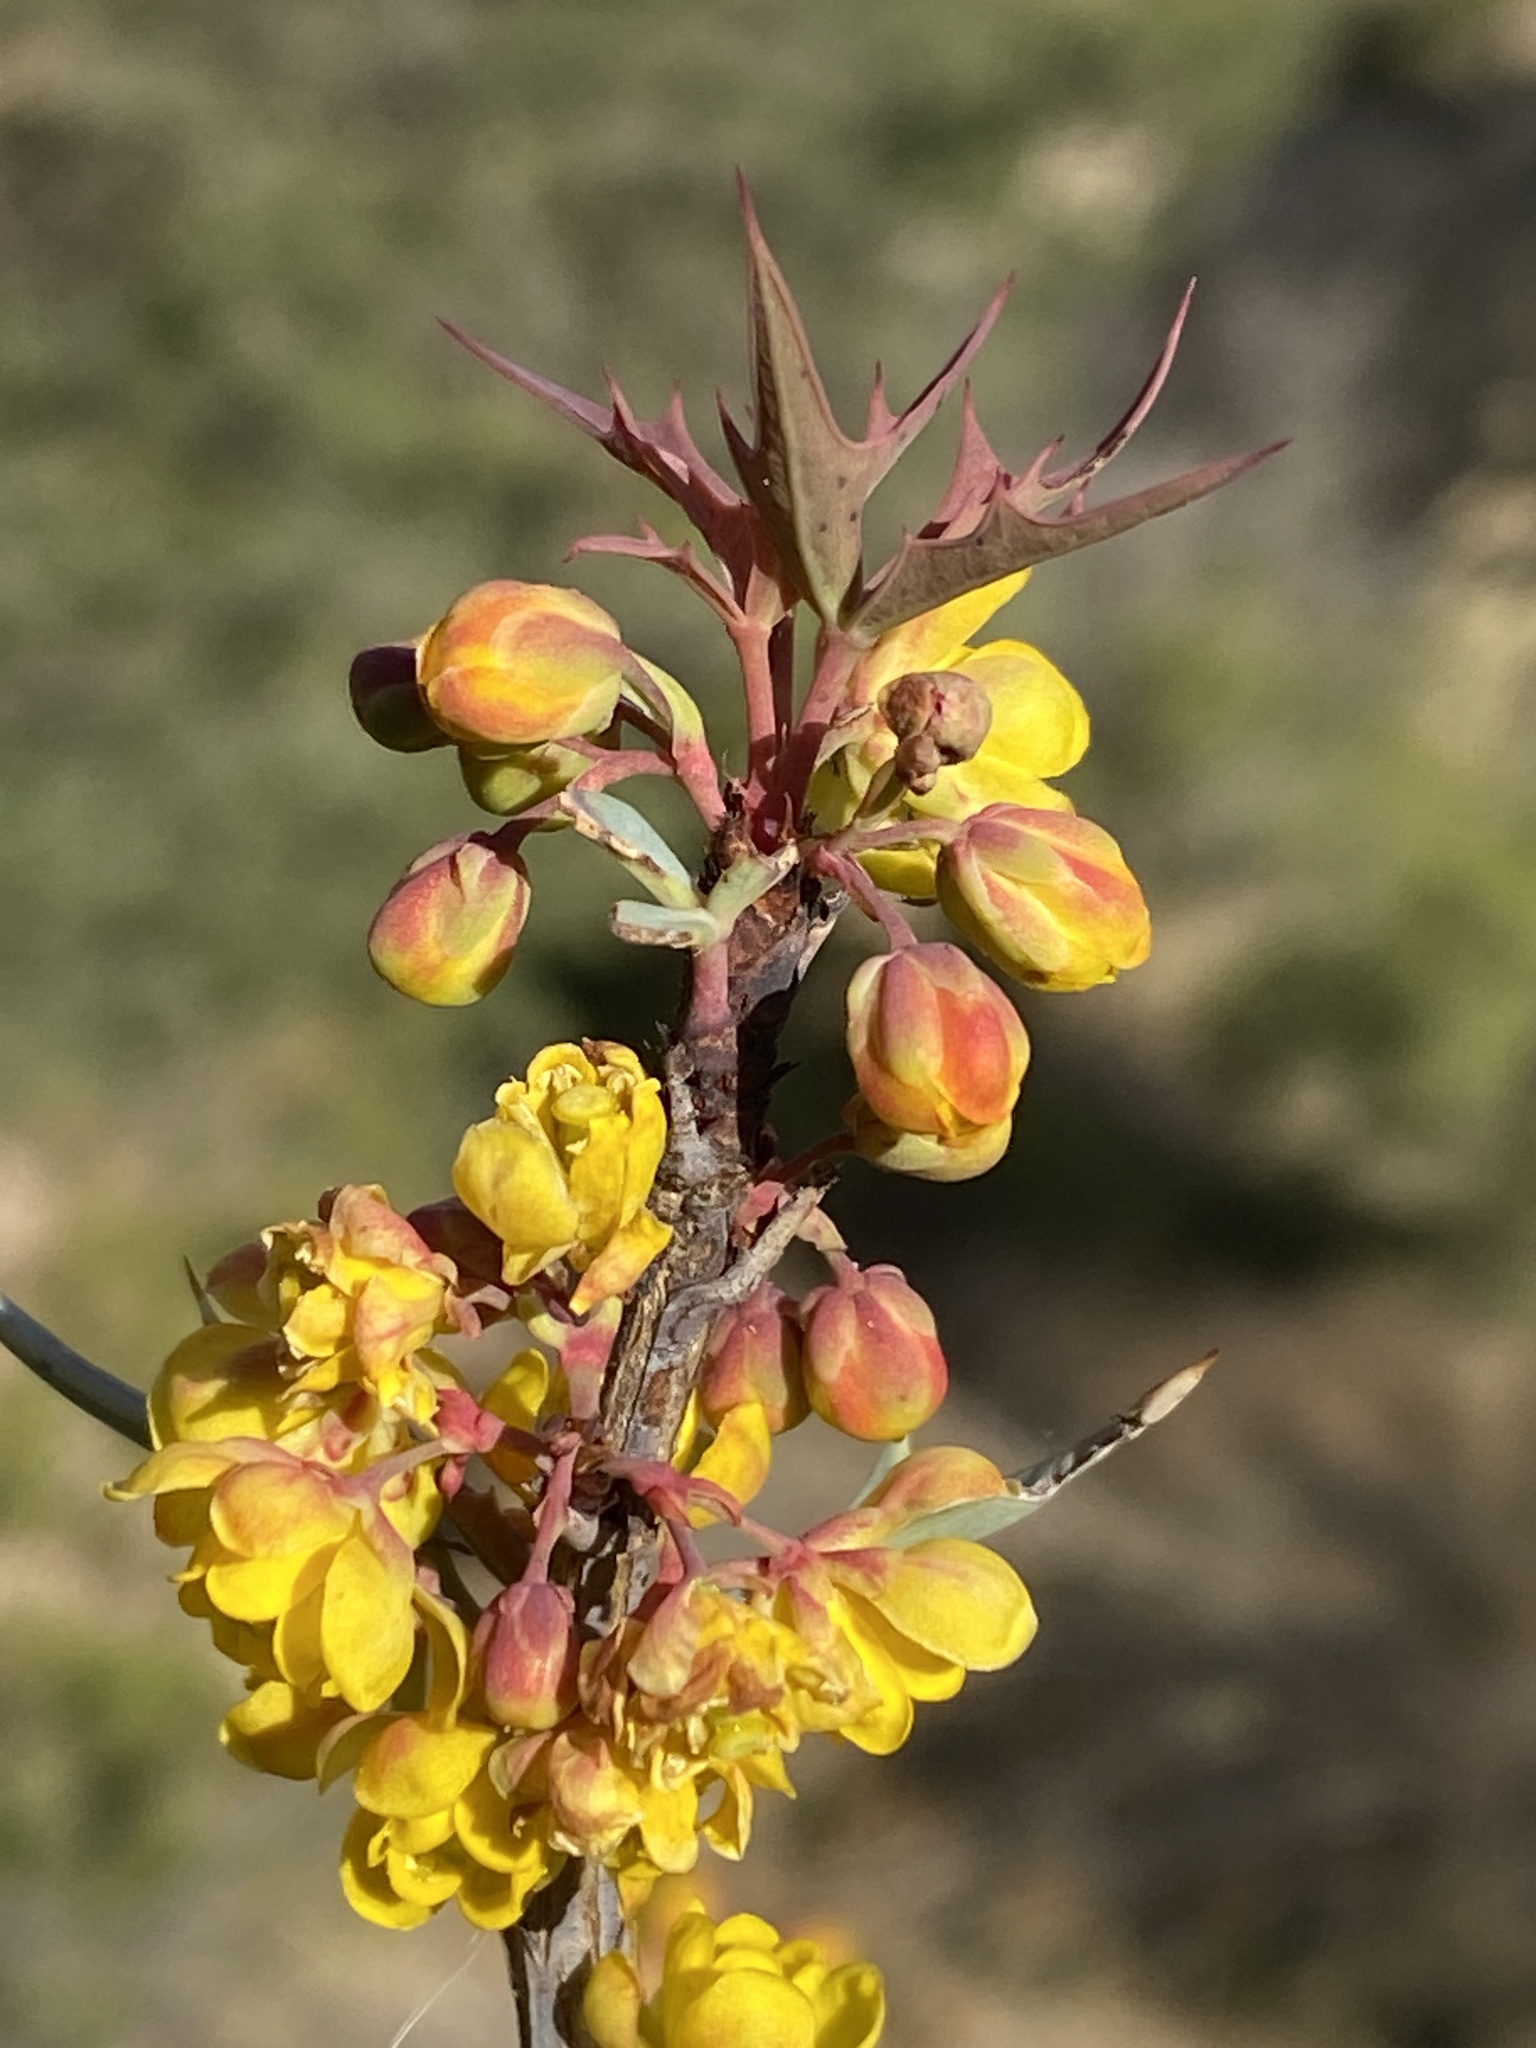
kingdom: Plantae
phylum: Tracheophyta
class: Magnoliopsida
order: Ranunculales
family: Berberidaceae
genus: Alloberberis
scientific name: Alloberberis trifoliolata
